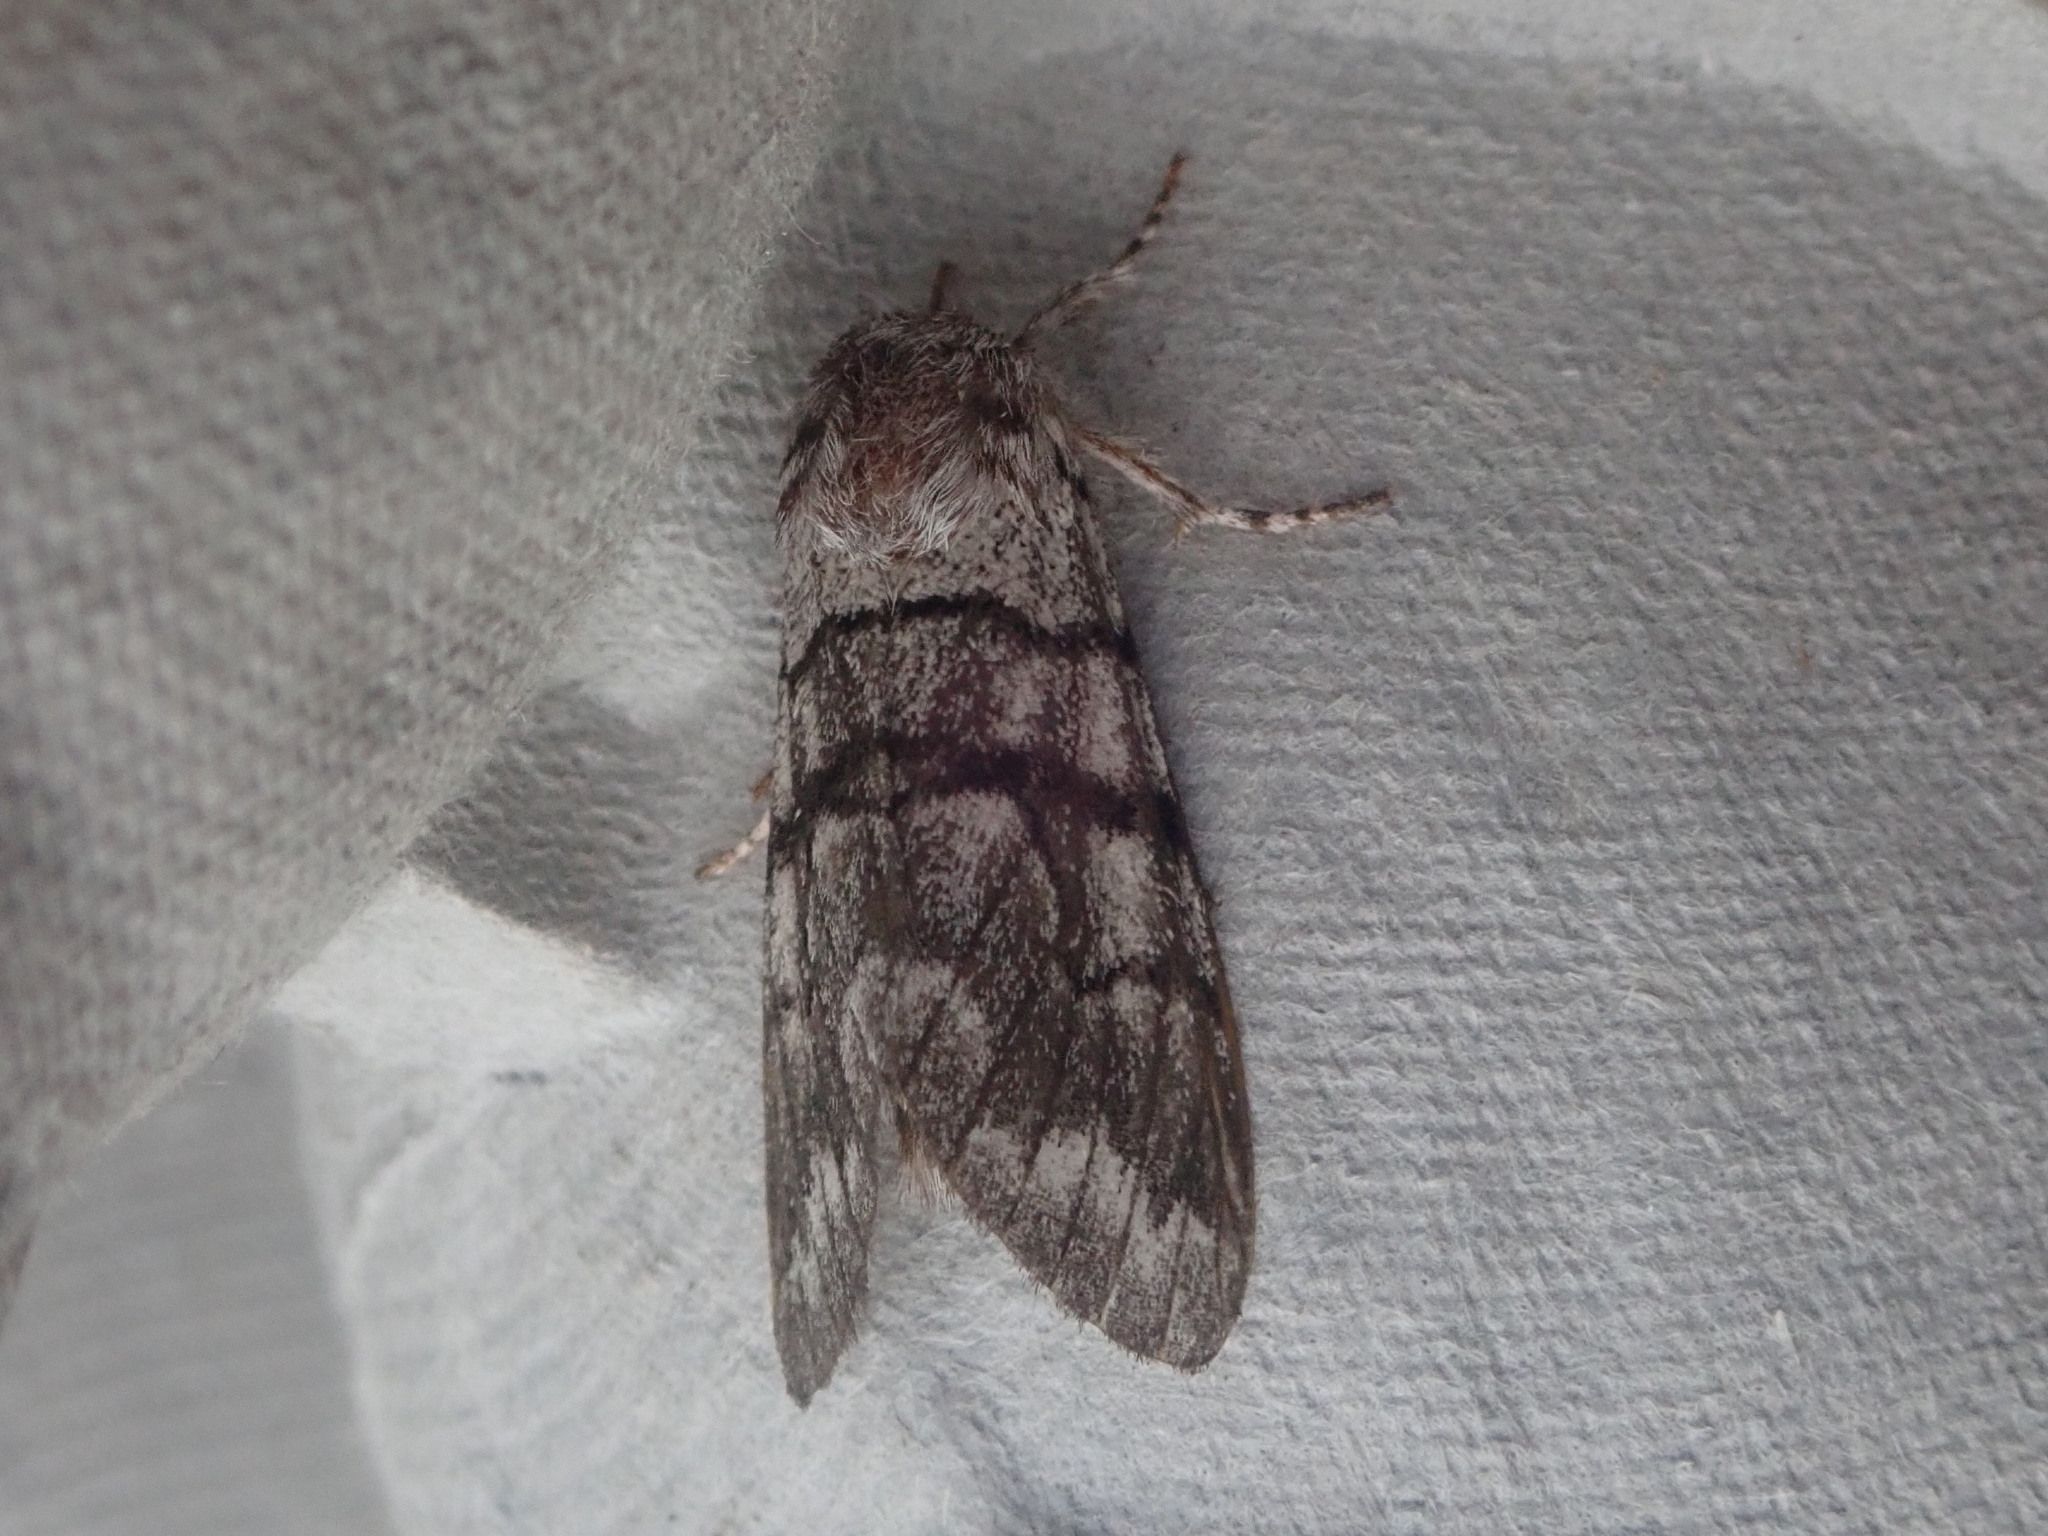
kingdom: Animalia
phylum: Arthropoda
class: Insecta
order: Lepidoptera
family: Noctuidae
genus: Panthea
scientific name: Panthea furcilla
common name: Eastern panthea moth
